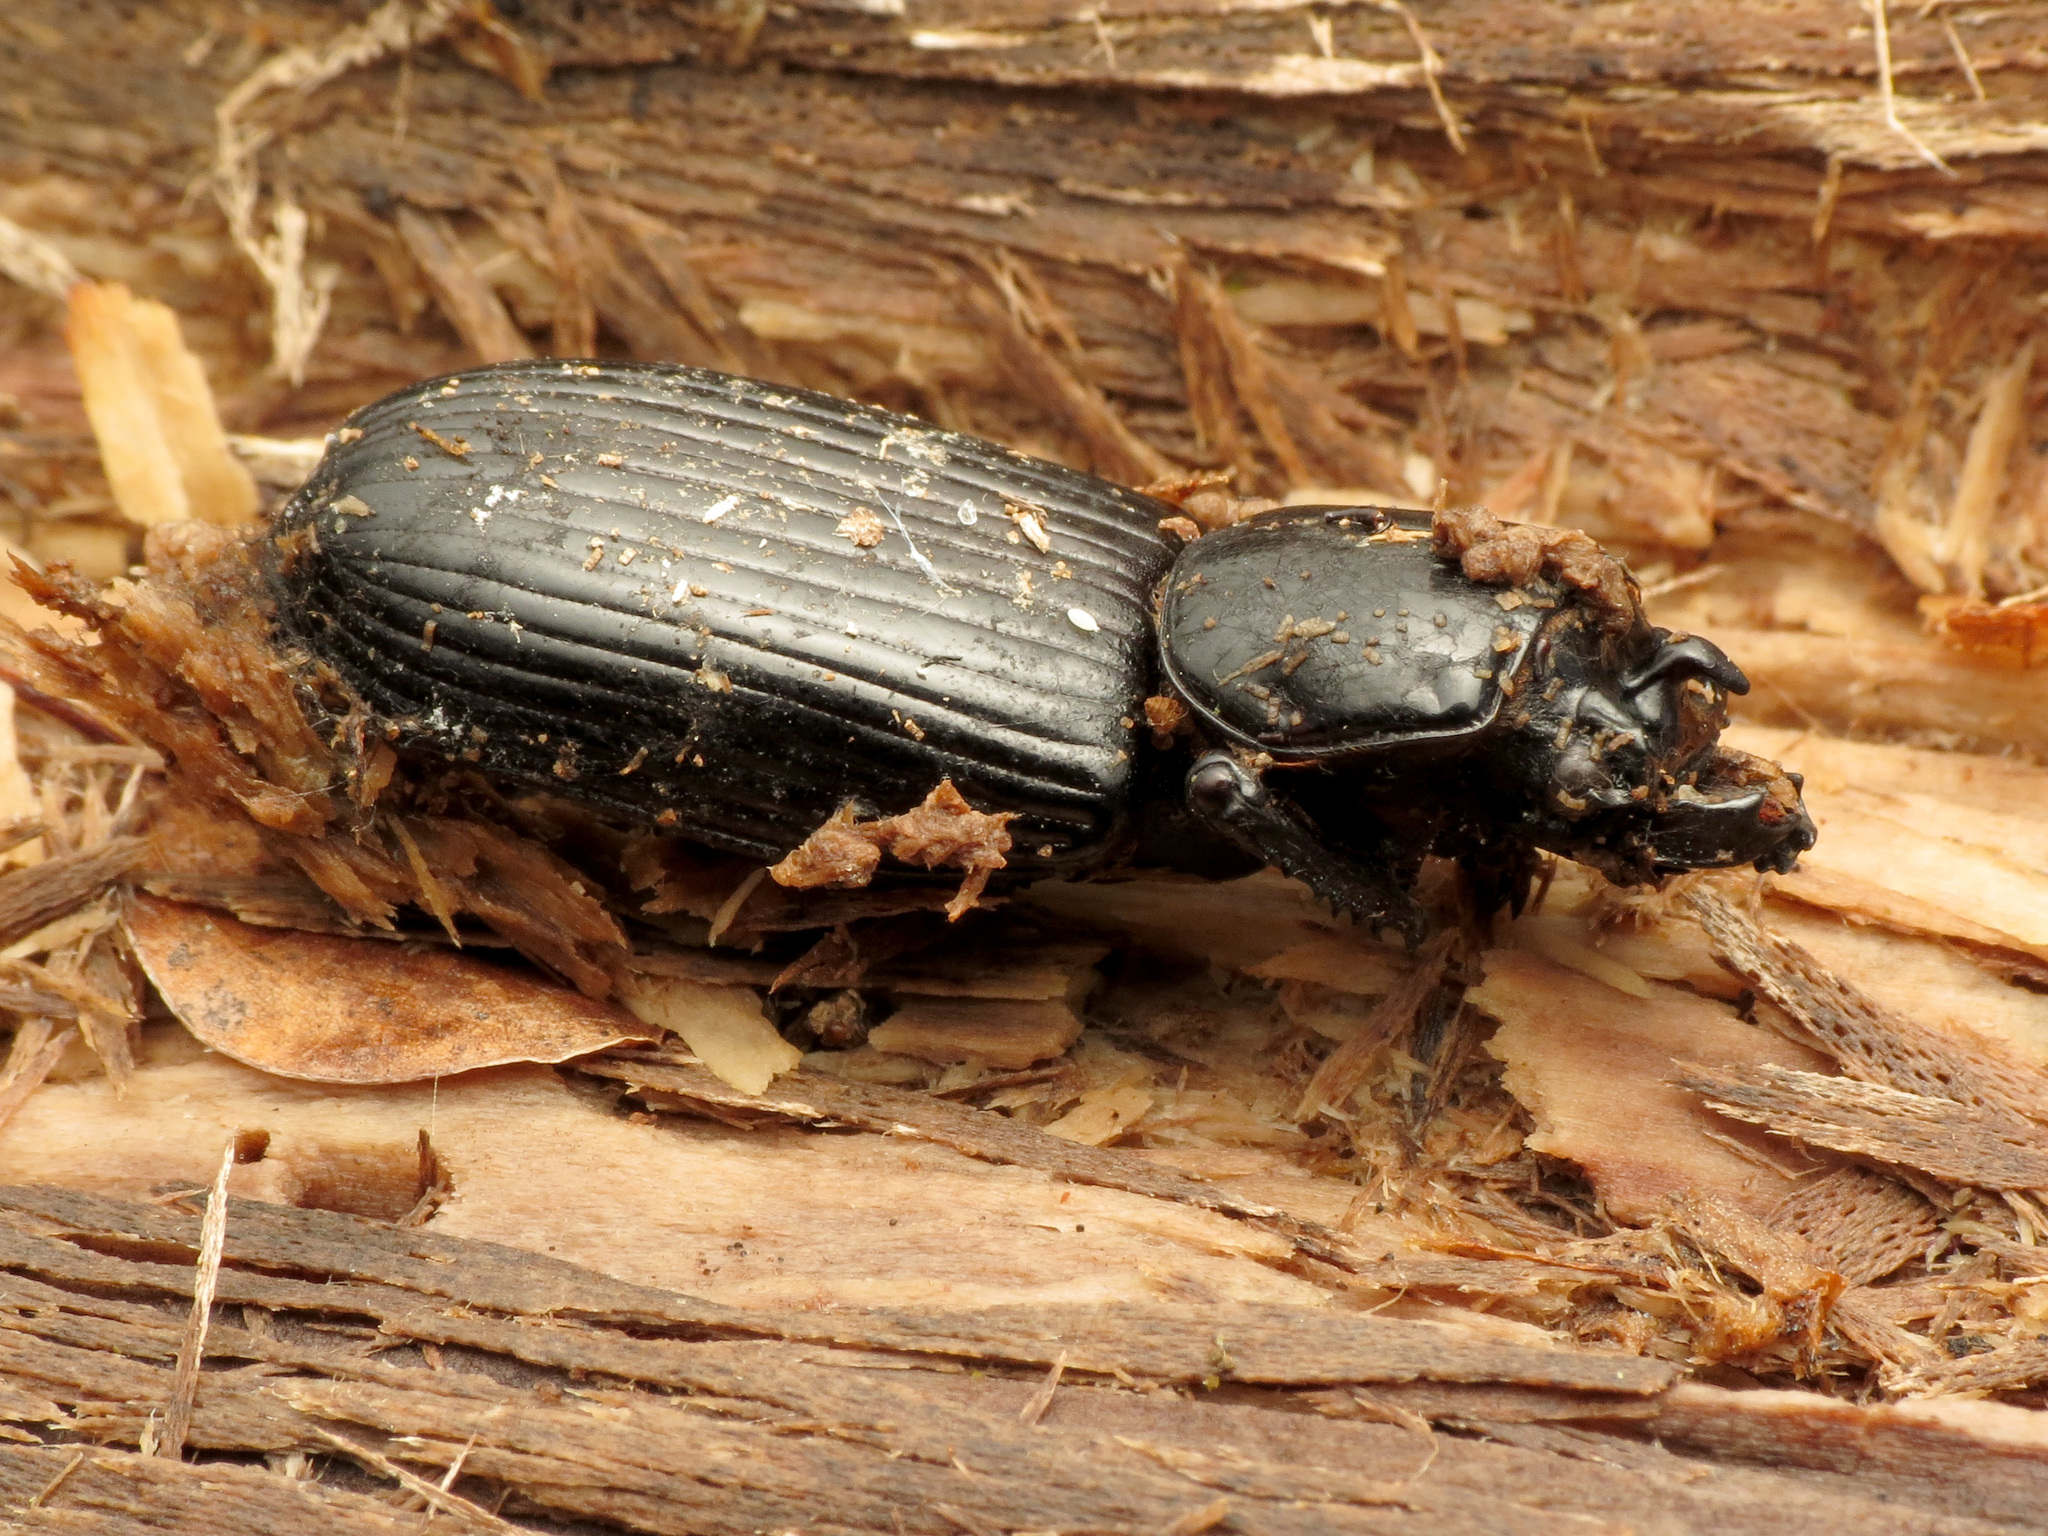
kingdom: Animalia
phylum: Arthropoda
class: Insecta
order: Coleoptera
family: Passalidae
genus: Odontotaenius
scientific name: Odontotaenius disjunctus
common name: Patent leather beetle
